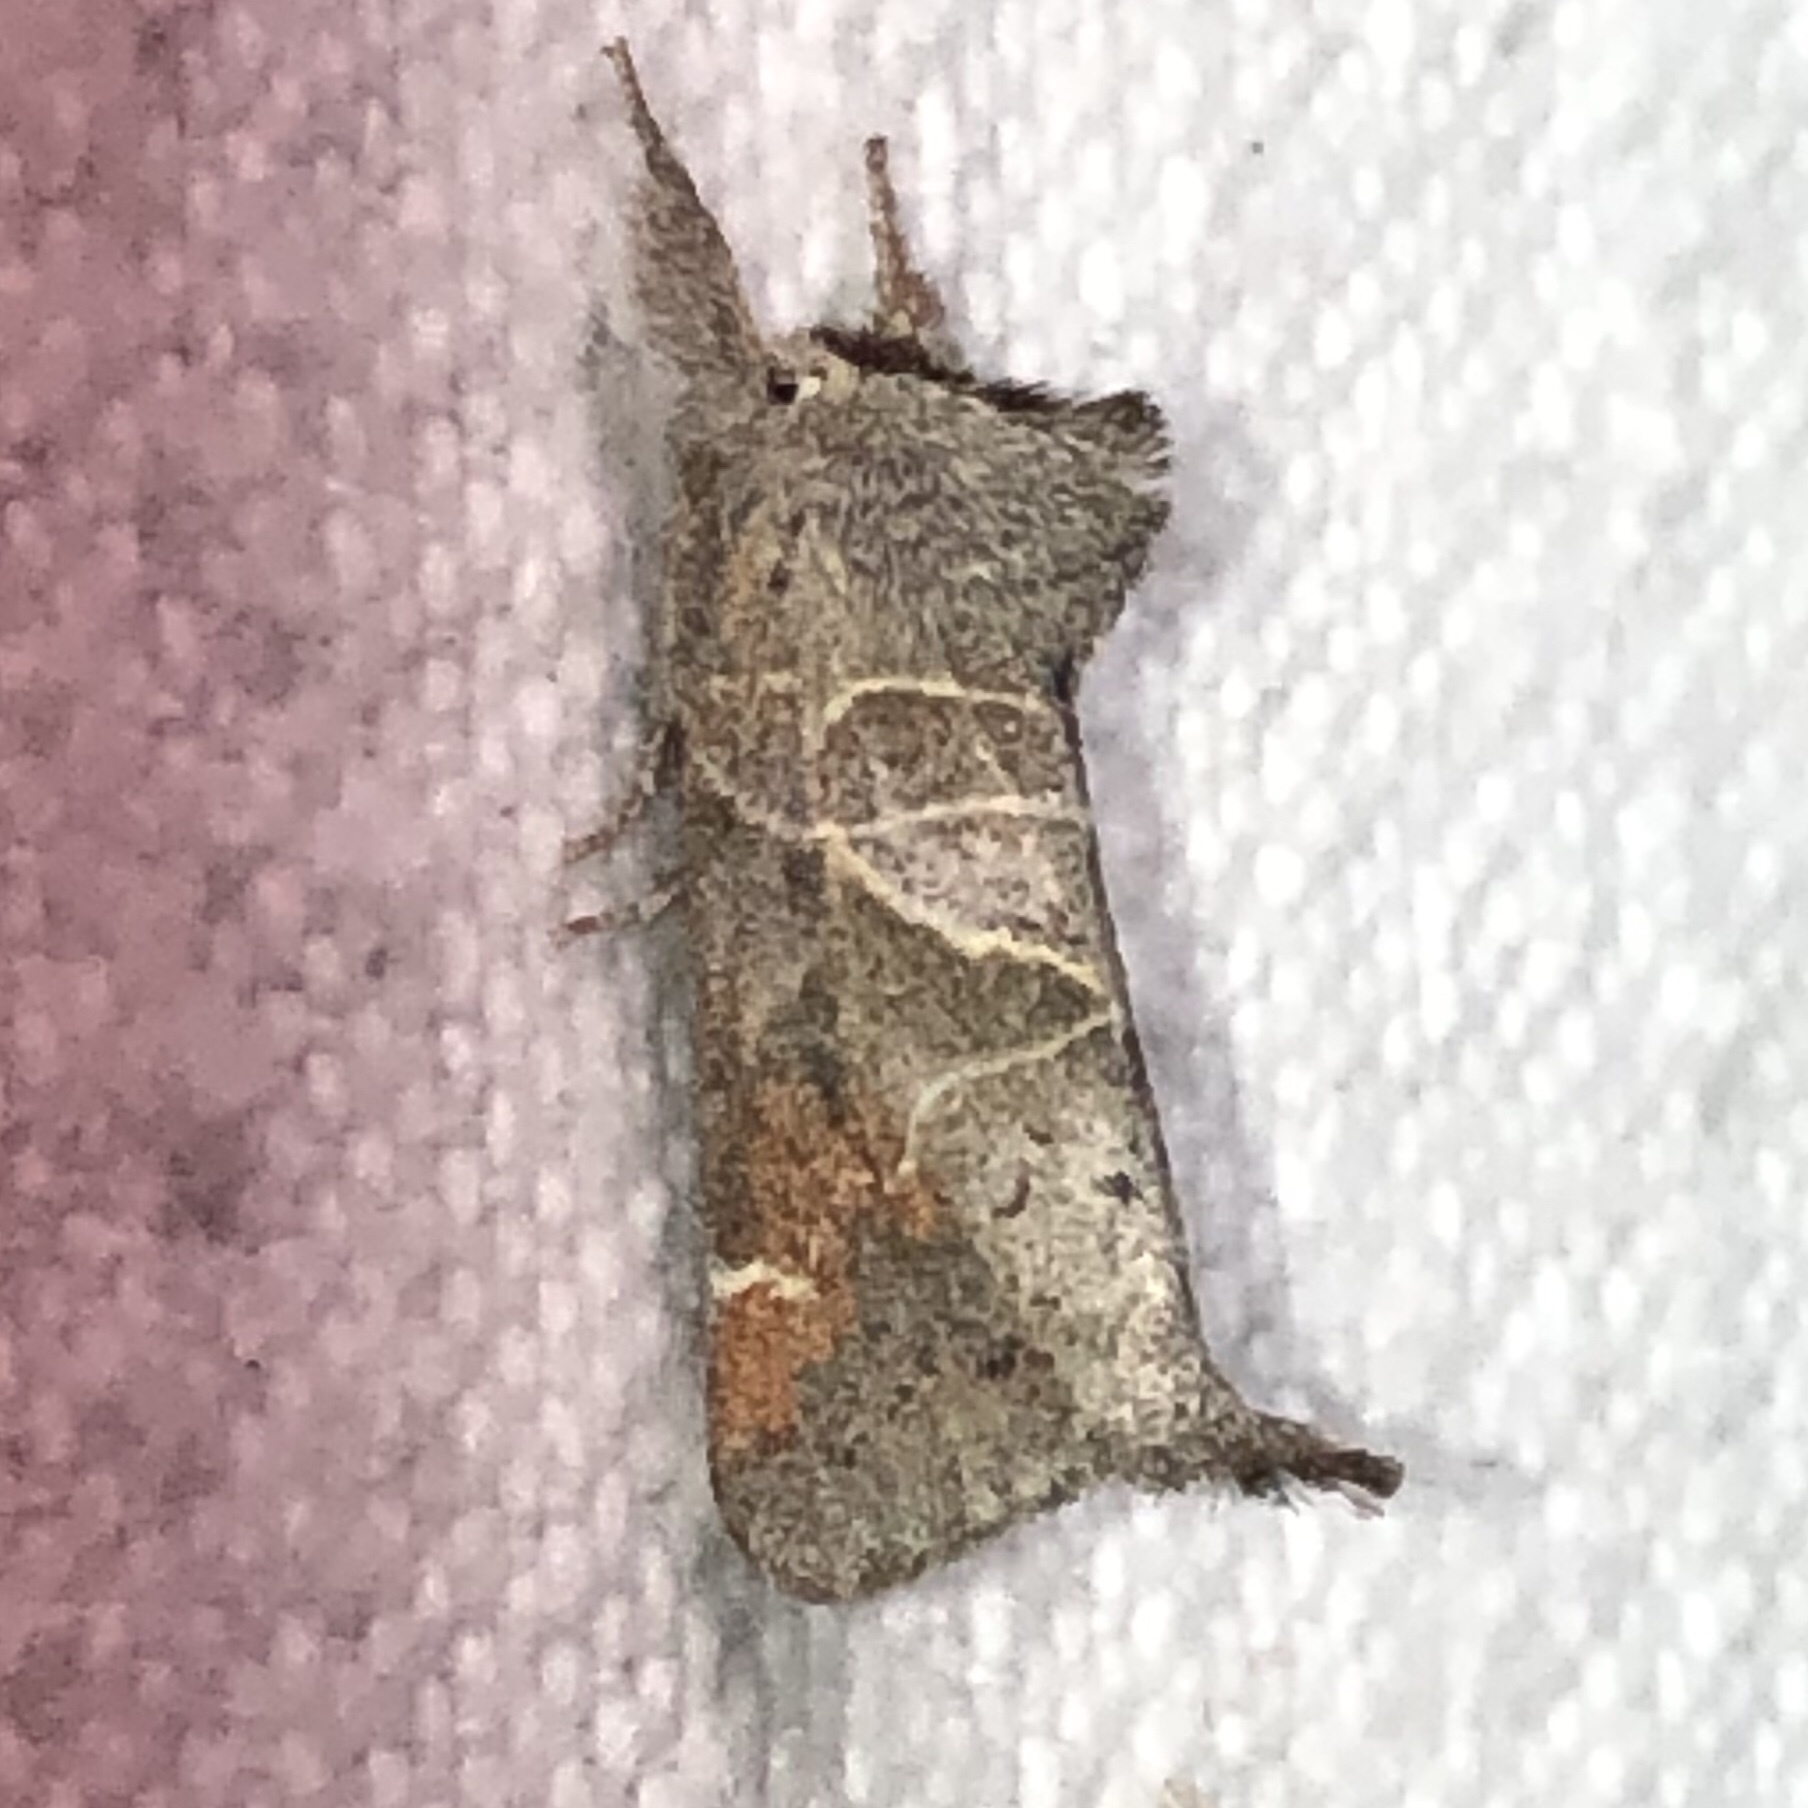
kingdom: Animalia
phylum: Arthropoda
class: Insecta
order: Lepidoptera
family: Notodontidae
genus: Clostera
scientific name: Clostera apicalis
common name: Apical prominent
